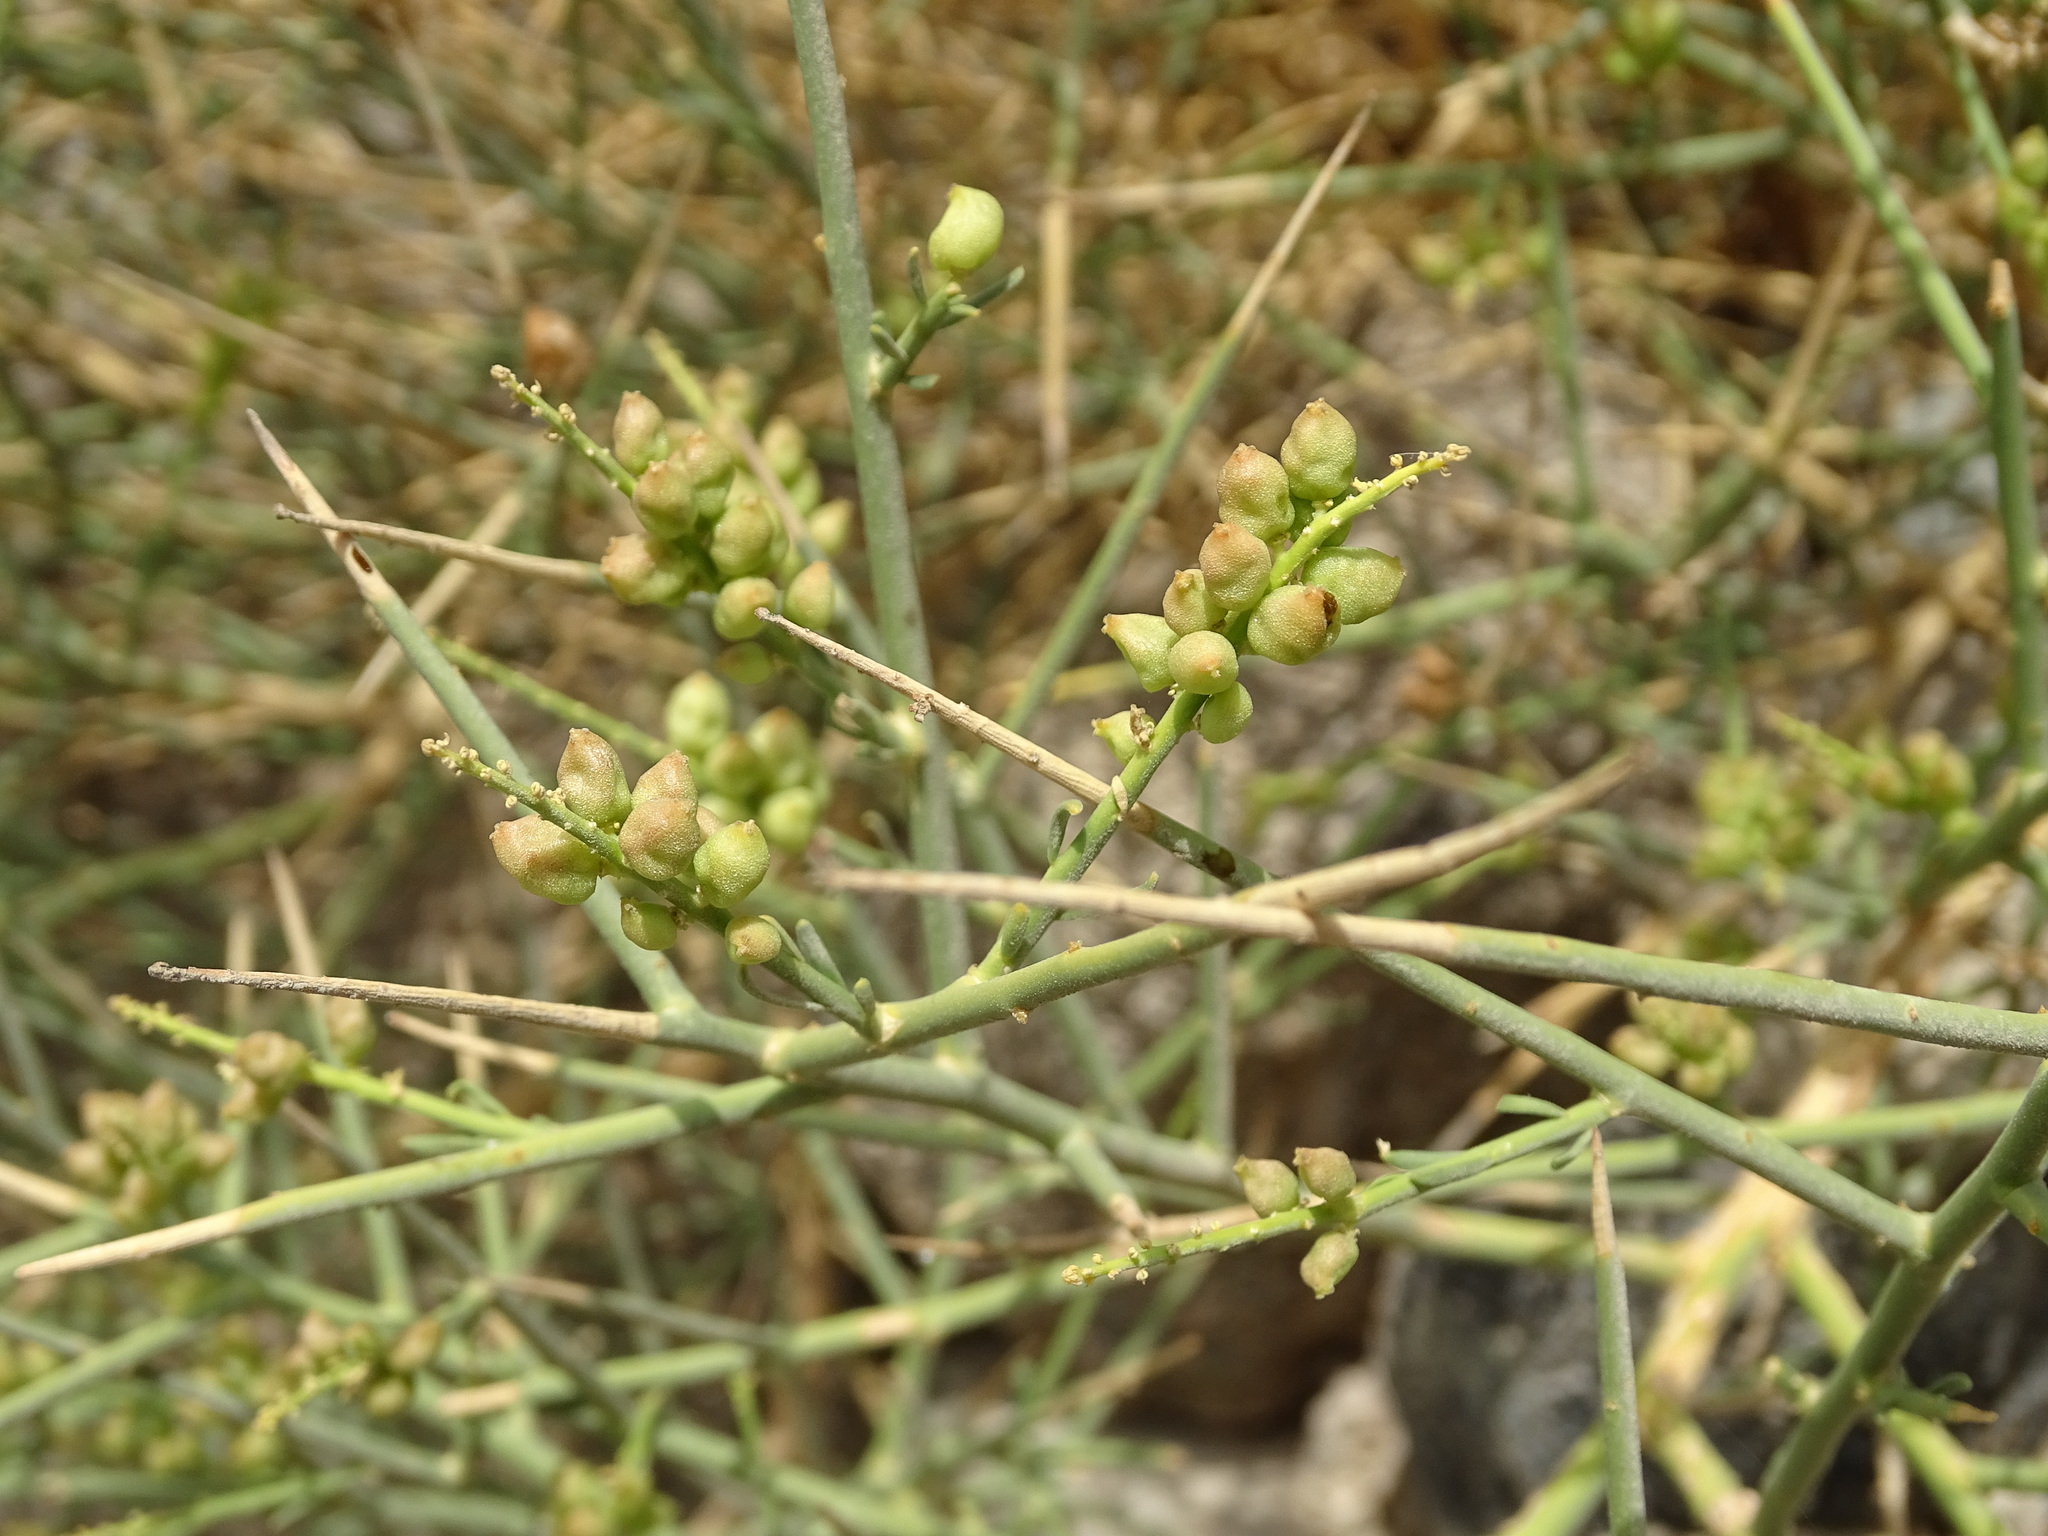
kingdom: Plantae
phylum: Tracheophyta
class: Magnoliopsida
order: Brassicales
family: Resedaceae
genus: Ochradiscus
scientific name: Ochradiscus aucheri
